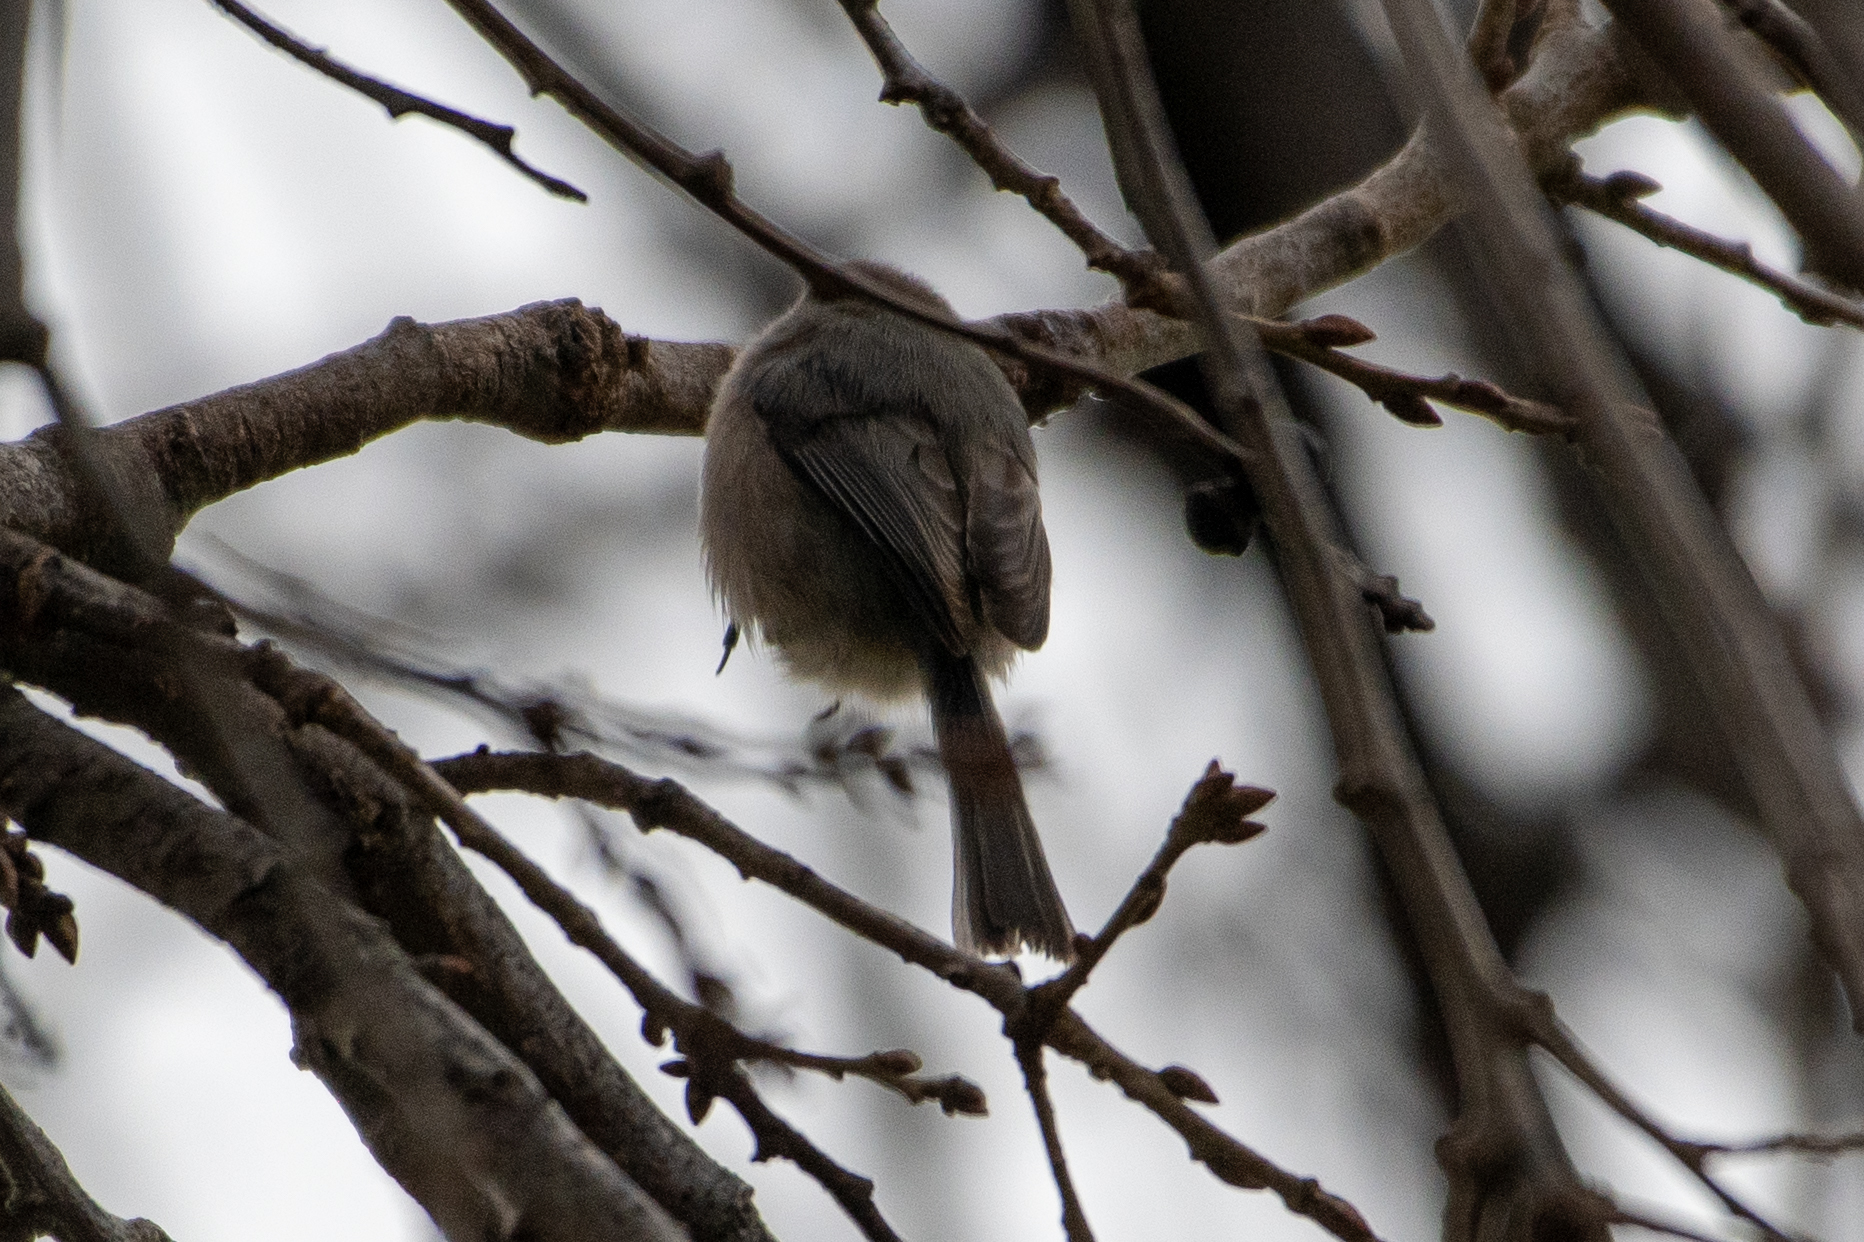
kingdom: Animalia
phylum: Chordata
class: Aves
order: Passeriformes
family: Aegithalidae
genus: Psaltriparus
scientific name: Psaltriparus minimus
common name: American bushtit
